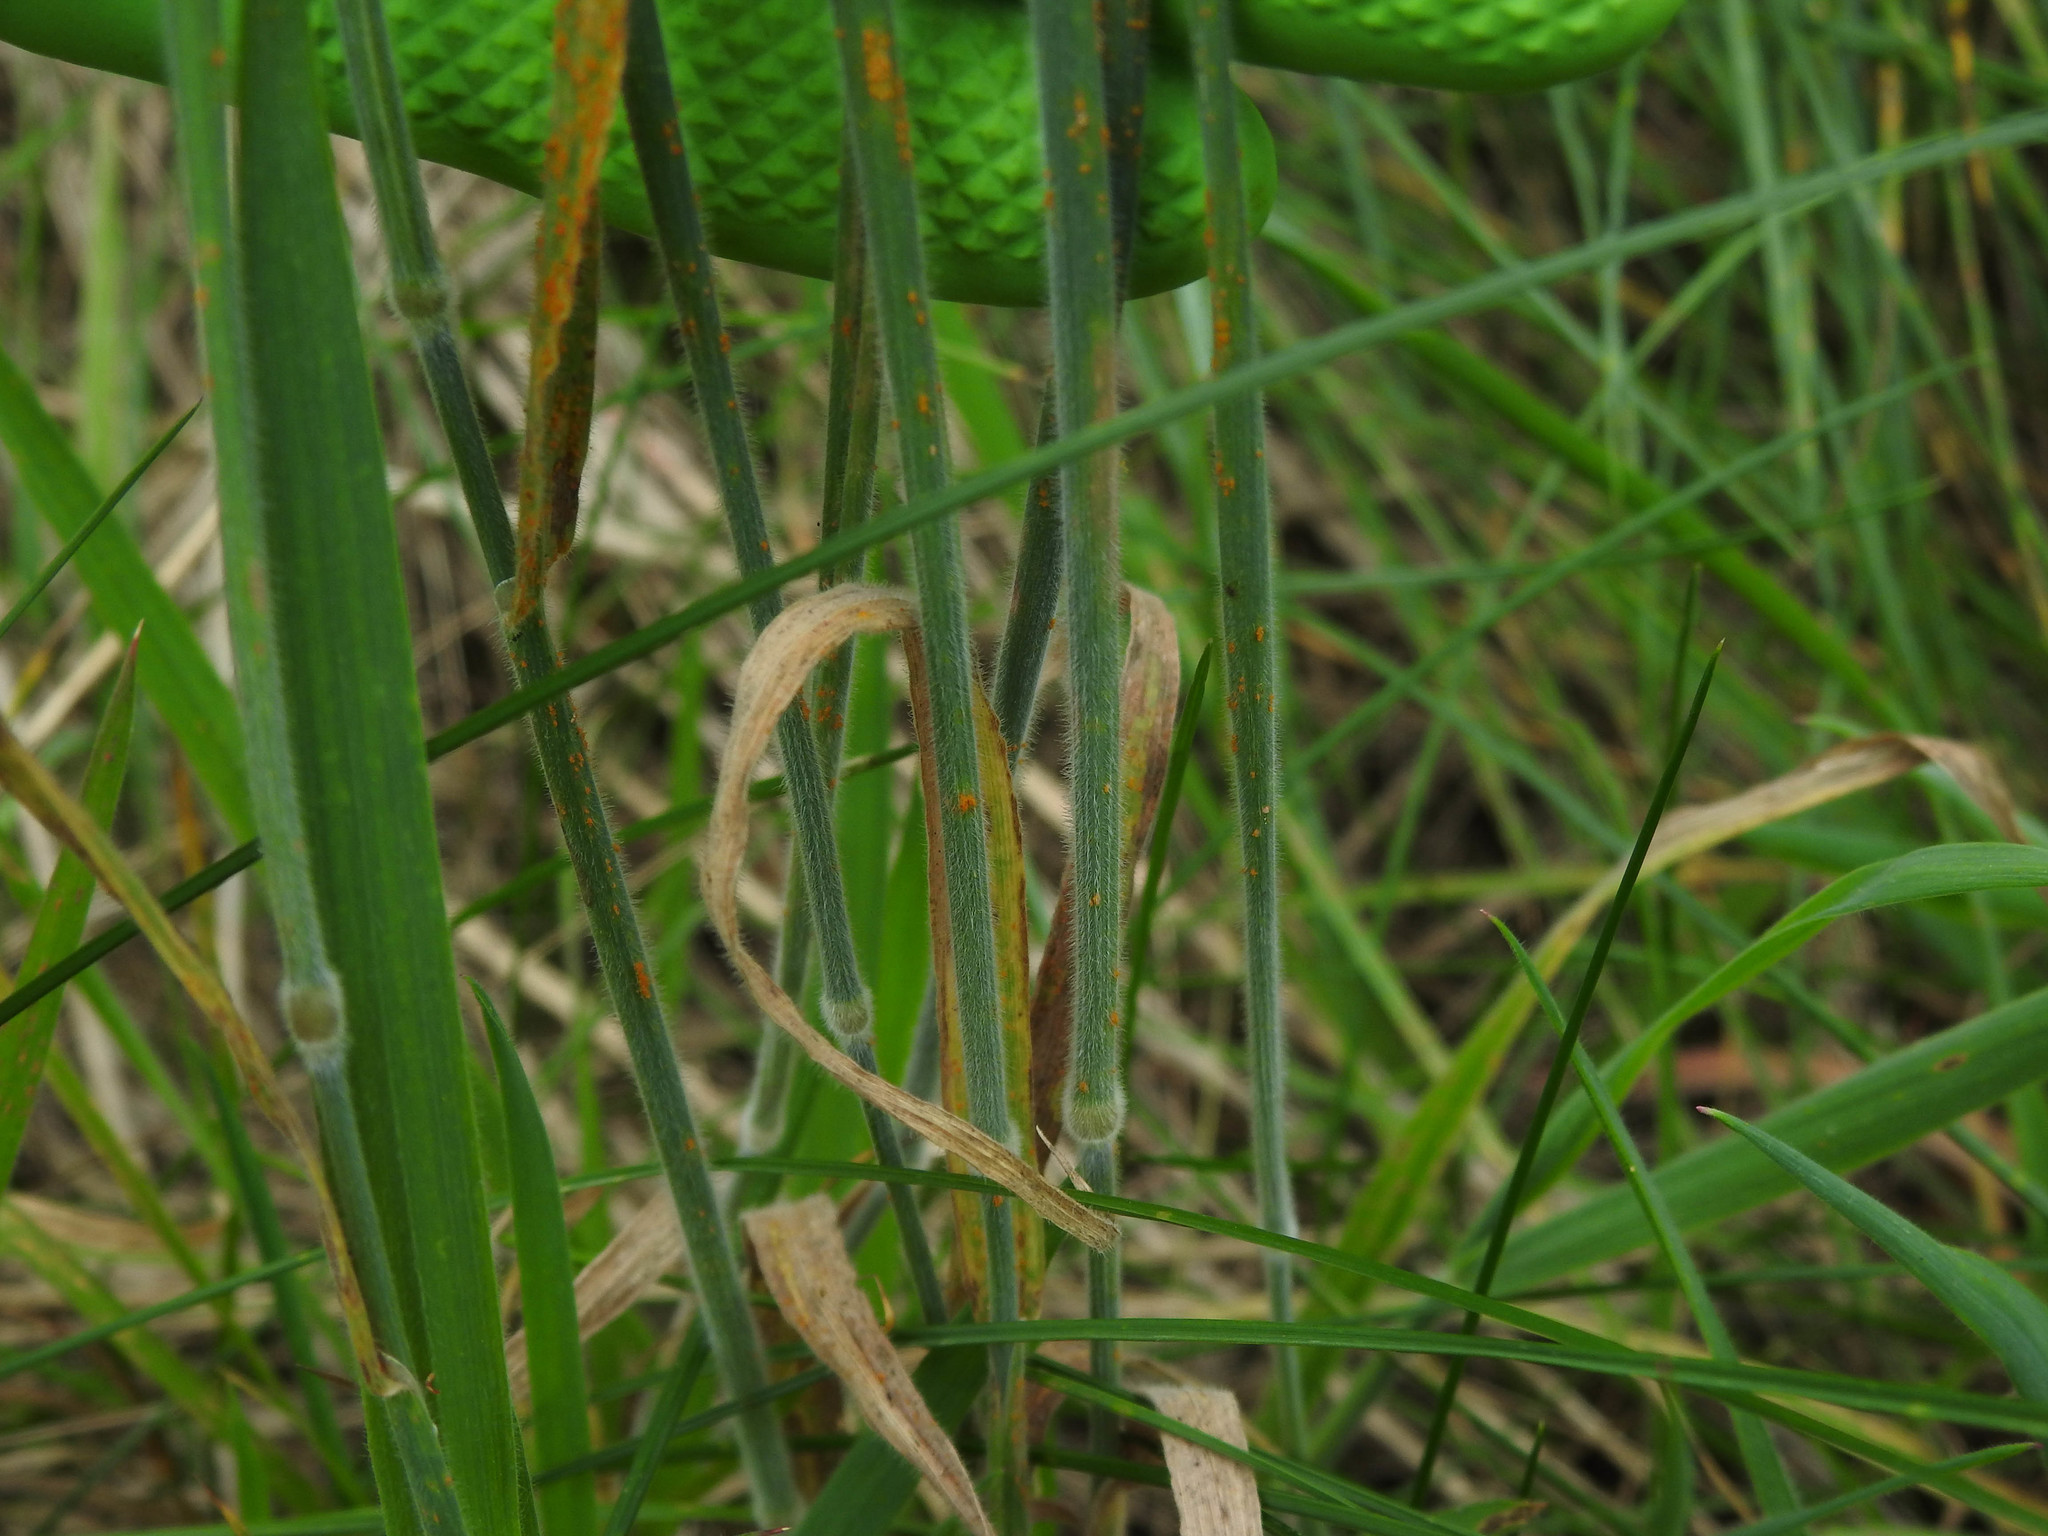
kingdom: Plantae
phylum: Tracheophyta
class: Liliopsida
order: Poales
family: Poaceae
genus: Holcus
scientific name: Holcus lanatus
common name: Yorkshire-fog
